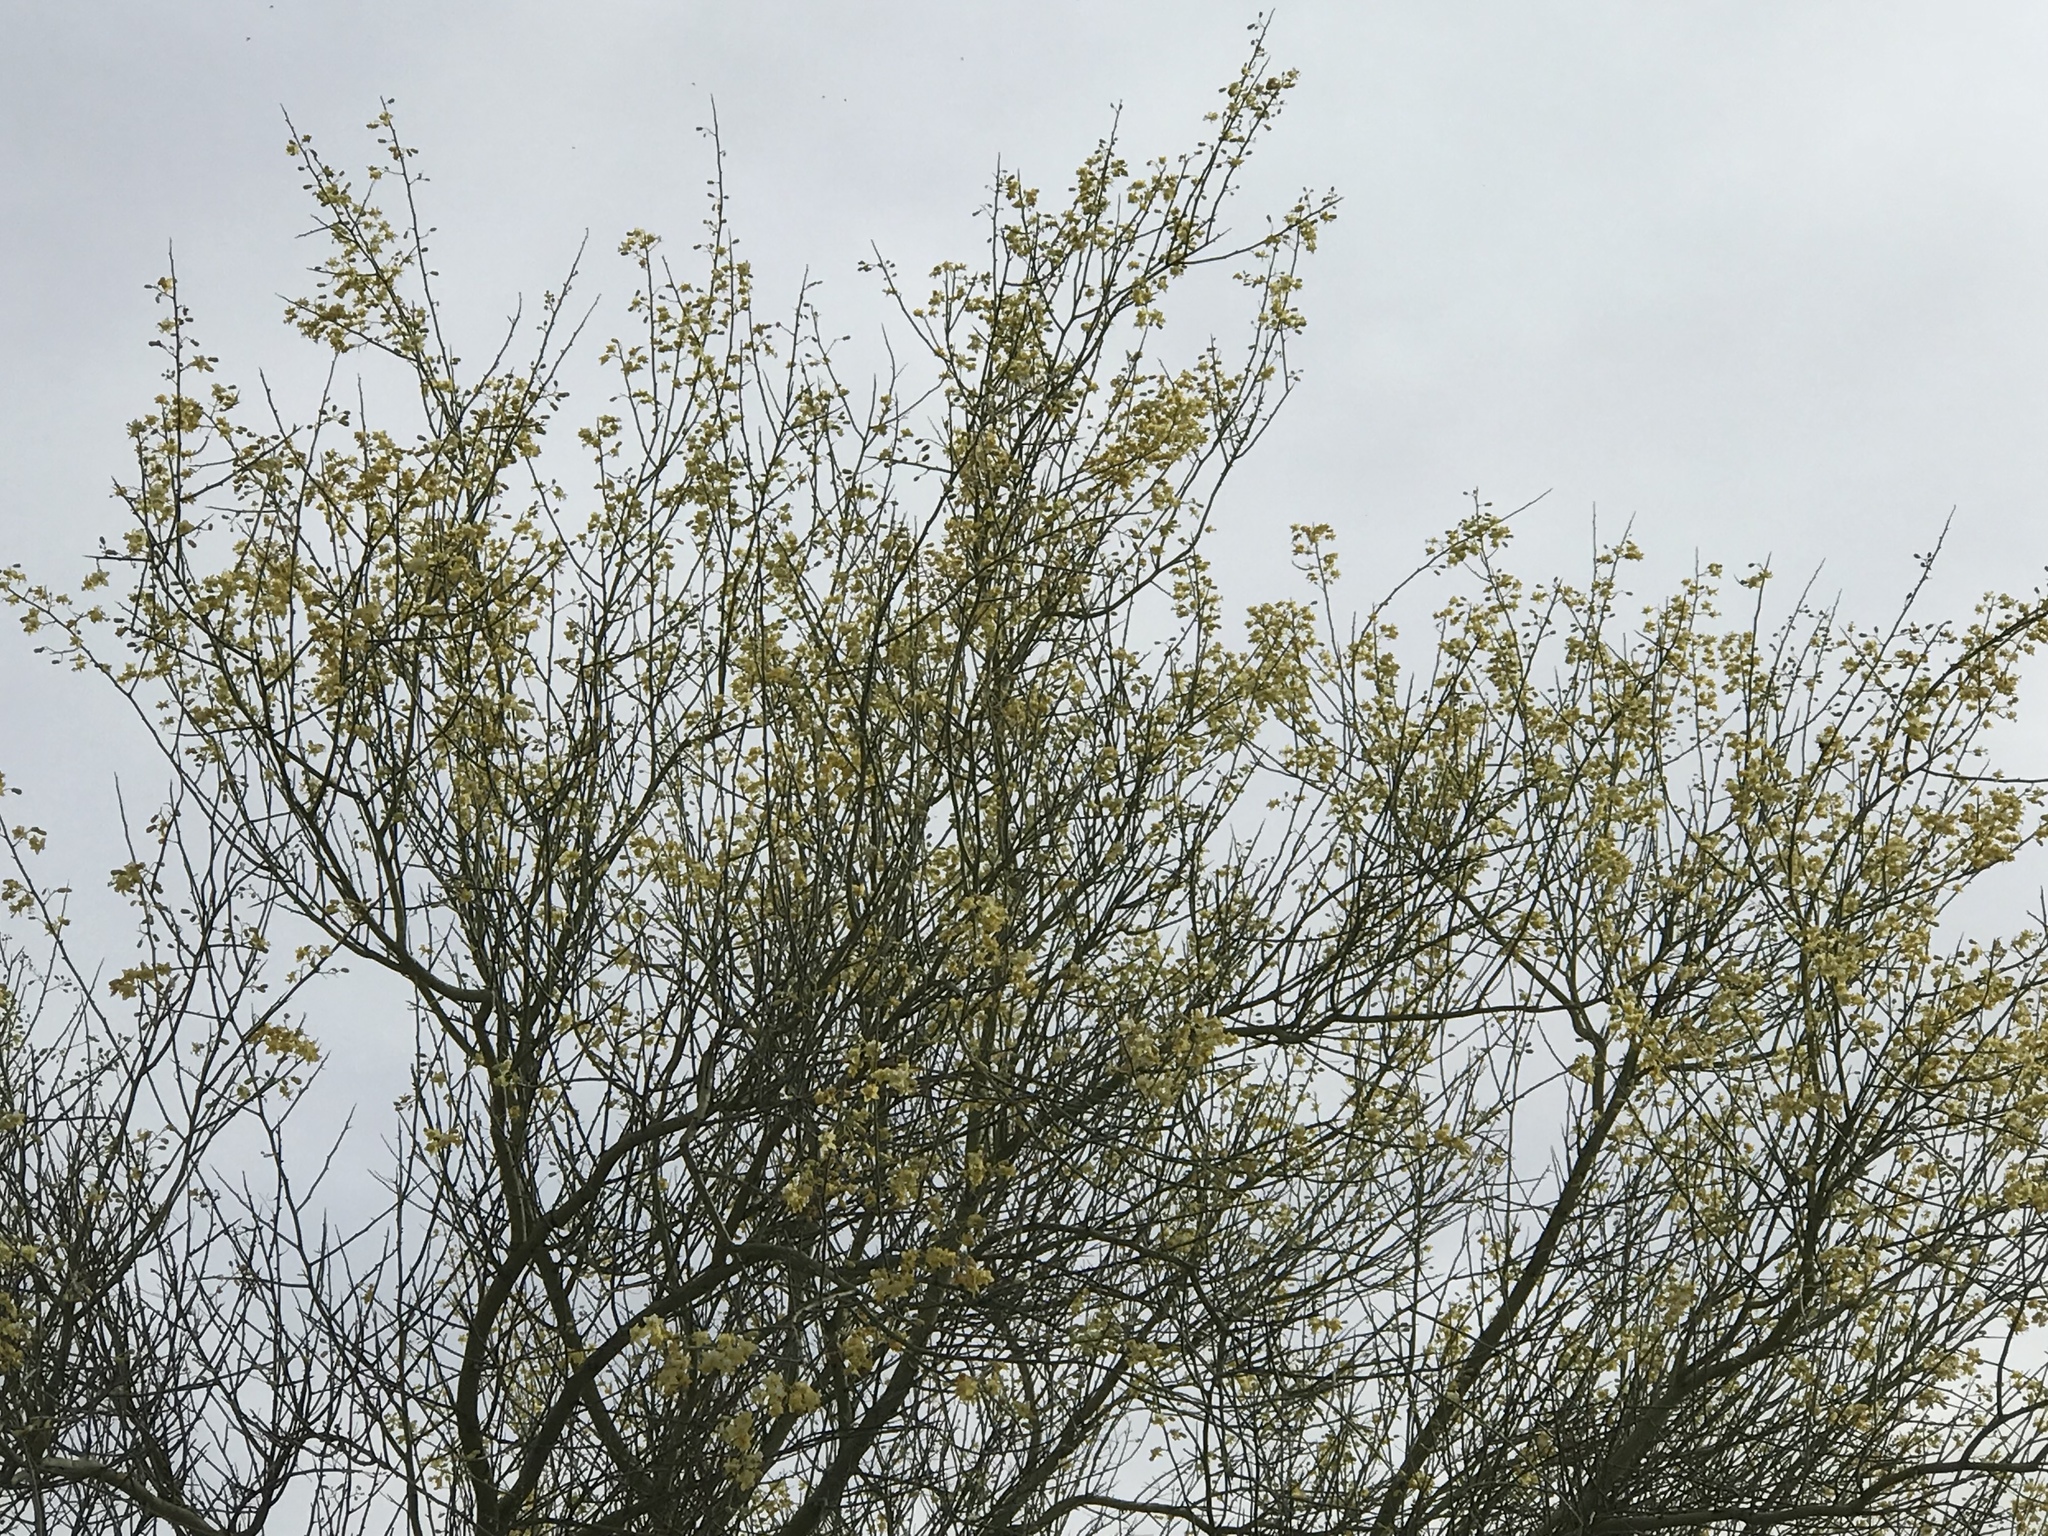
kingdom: Plantae
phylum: Tracheophyta
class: Magnoliopsida
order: Fabales
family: Fabaceae
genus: Parkinsonia
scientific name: Parkinsonia florida
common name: Blue paloverde
